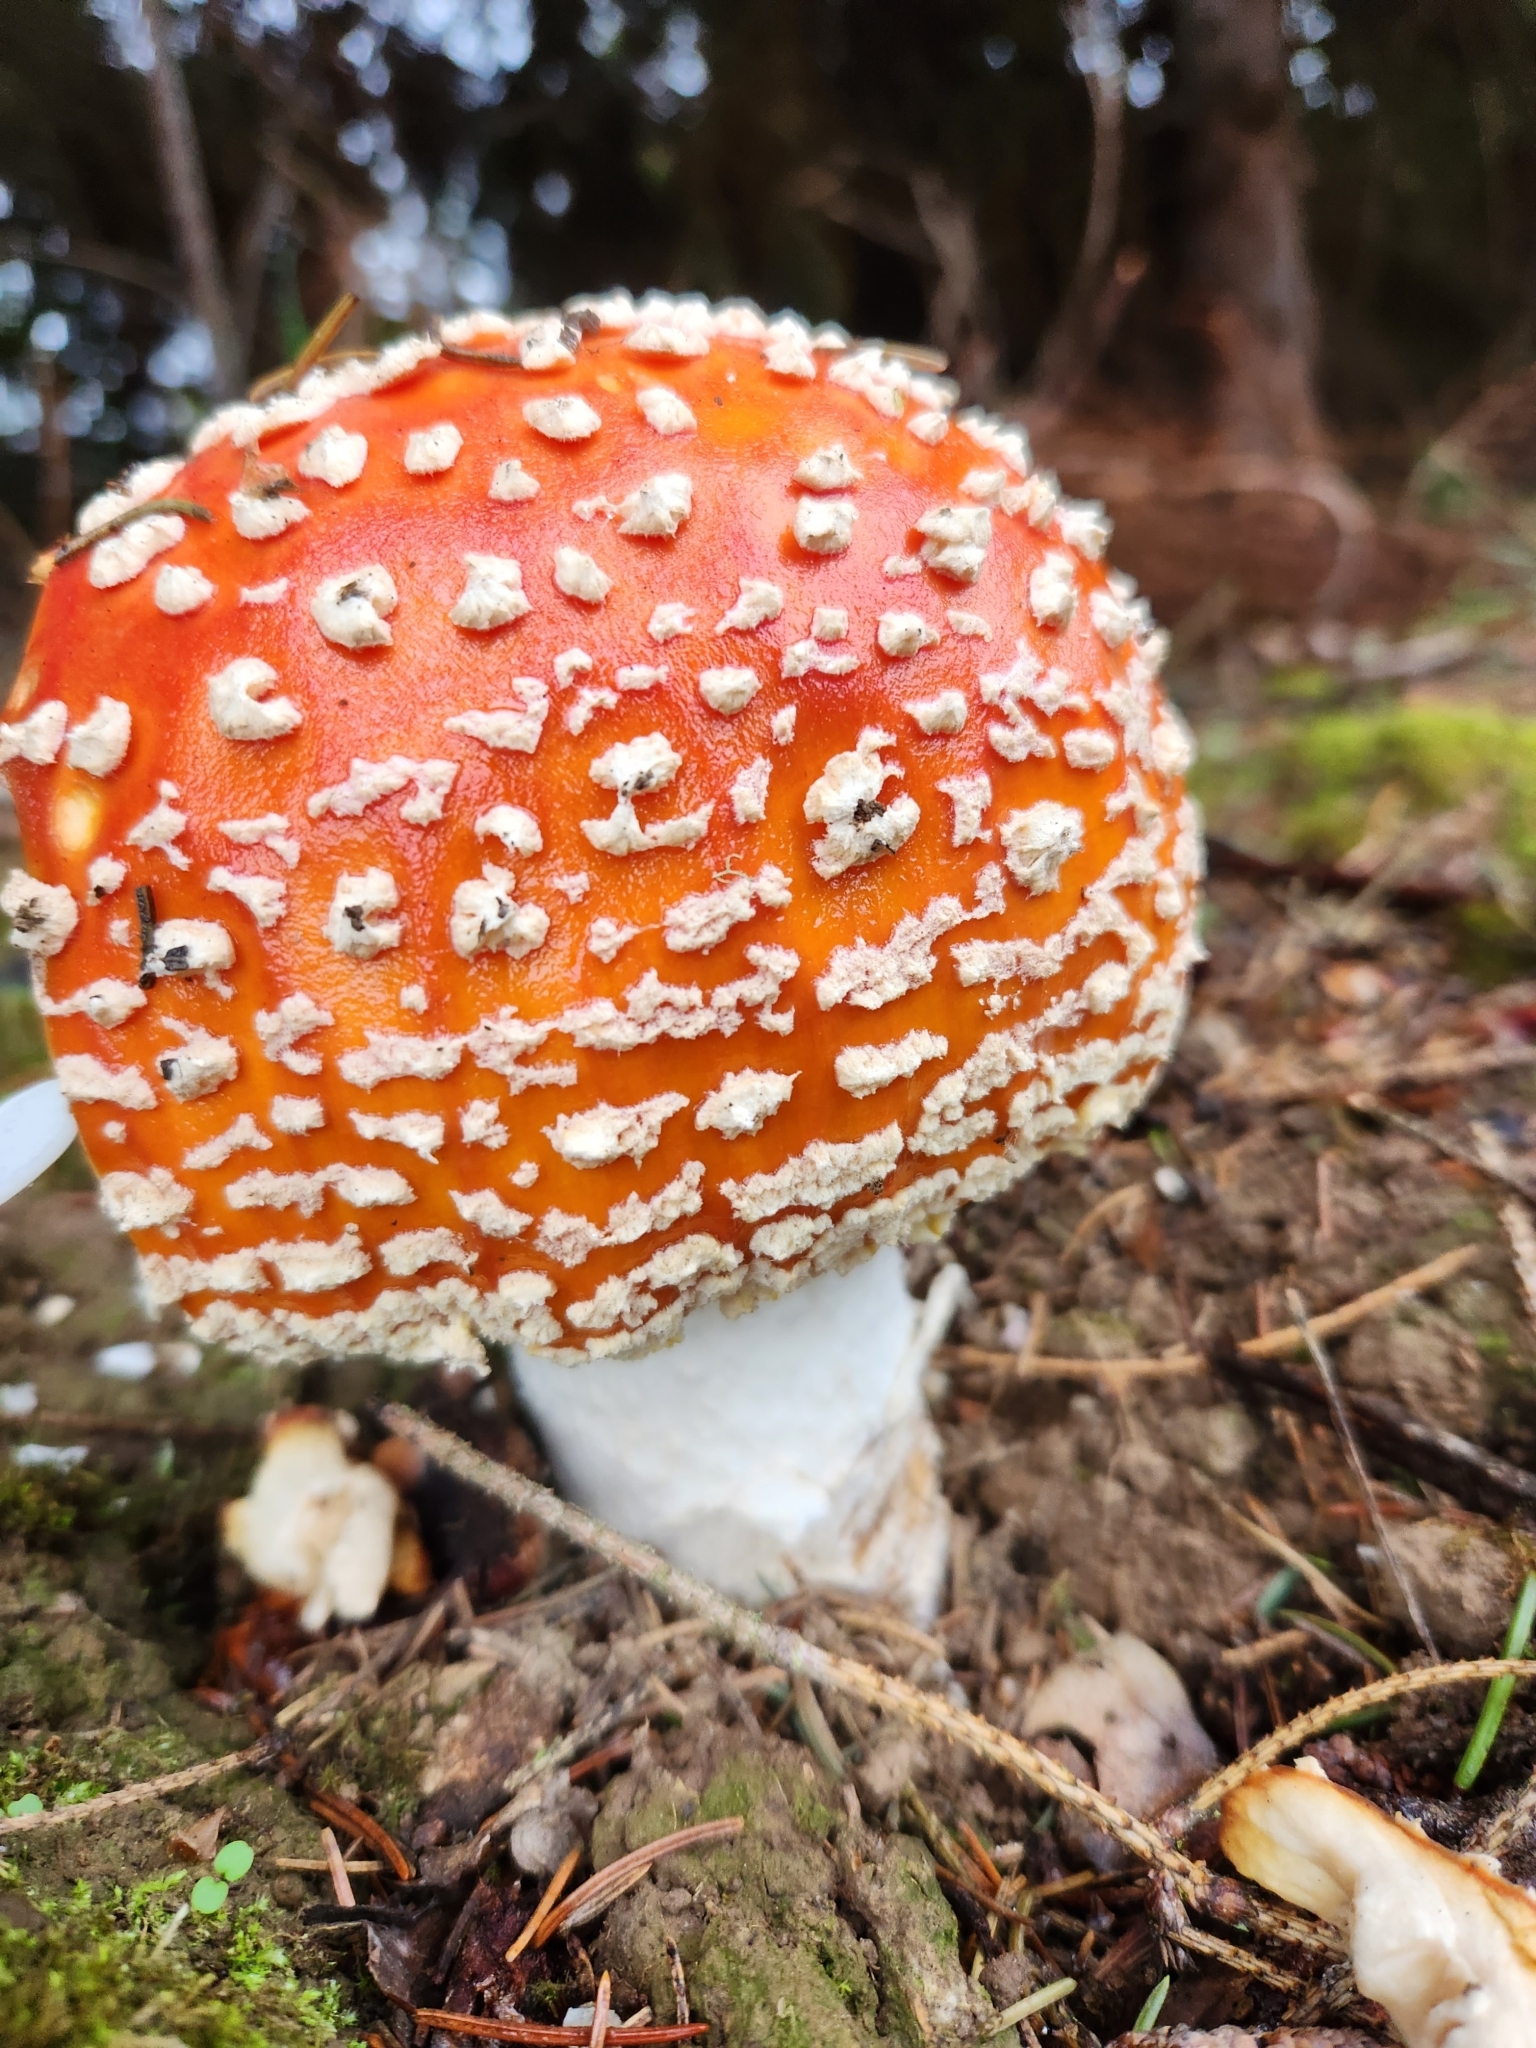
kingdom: Fungi
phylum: Basidiomycota
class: Agaricomycetes
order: Agaricales
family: Amanitaceae
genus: Amanita
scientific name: Amanita muscaria
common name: Fly agaric
